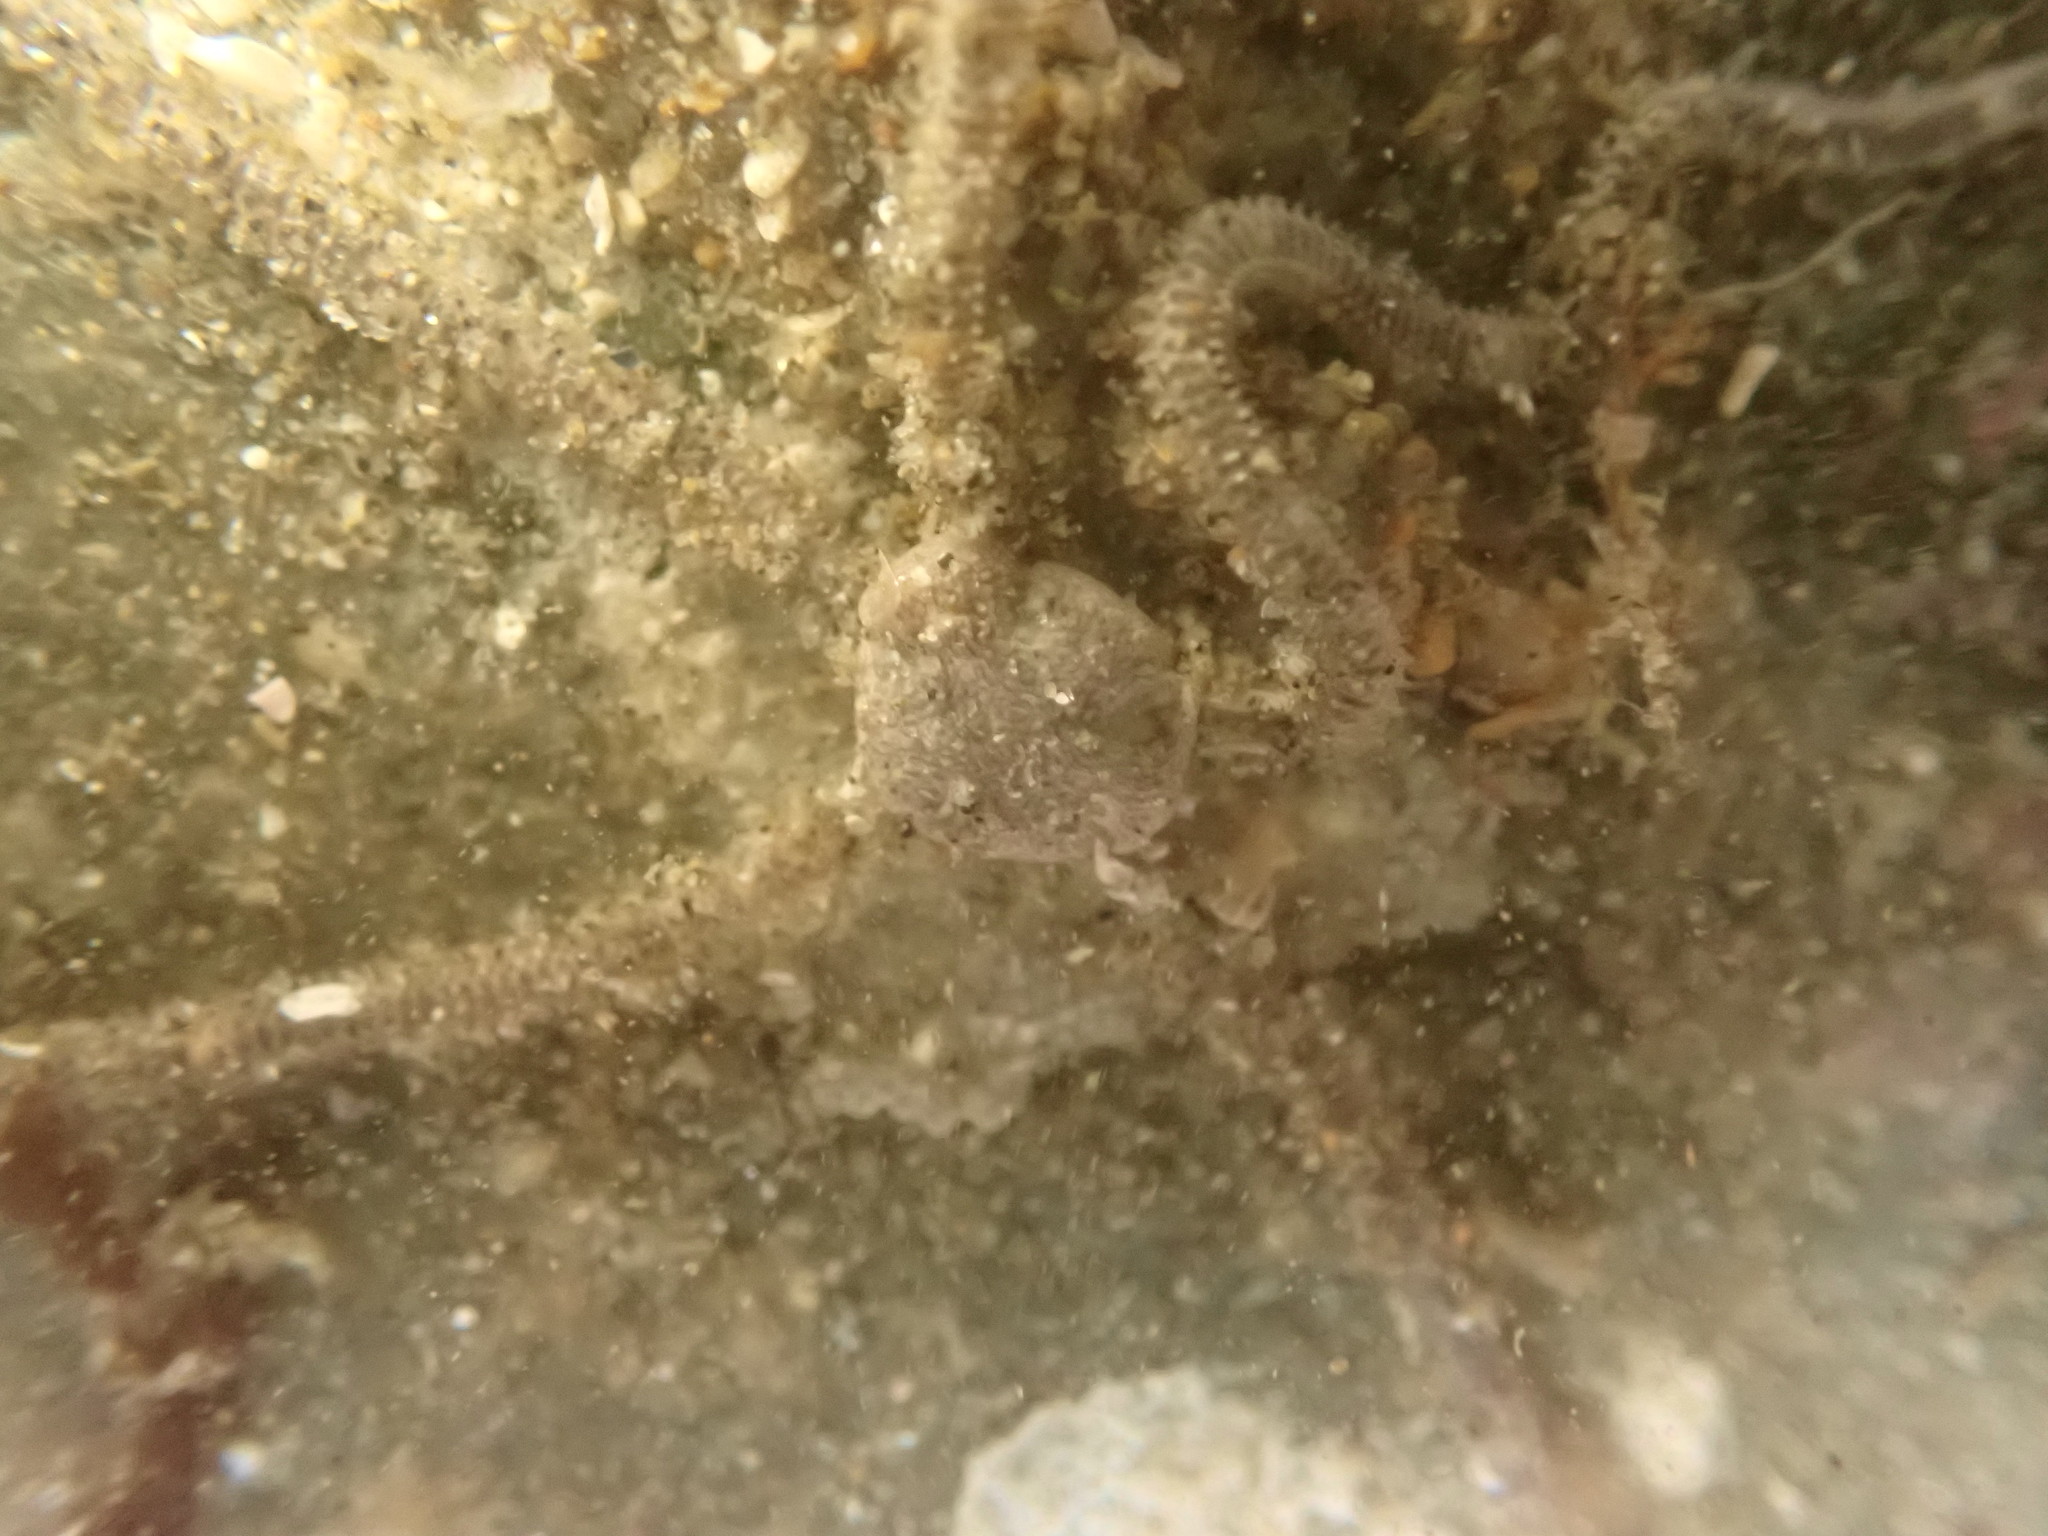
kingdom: Animalia
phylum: Echinodermata
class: Ophiuroidea
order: Amphilepidida
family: Amphiuridae
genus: Amphiodia
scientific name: Amphiodia occidentalis
